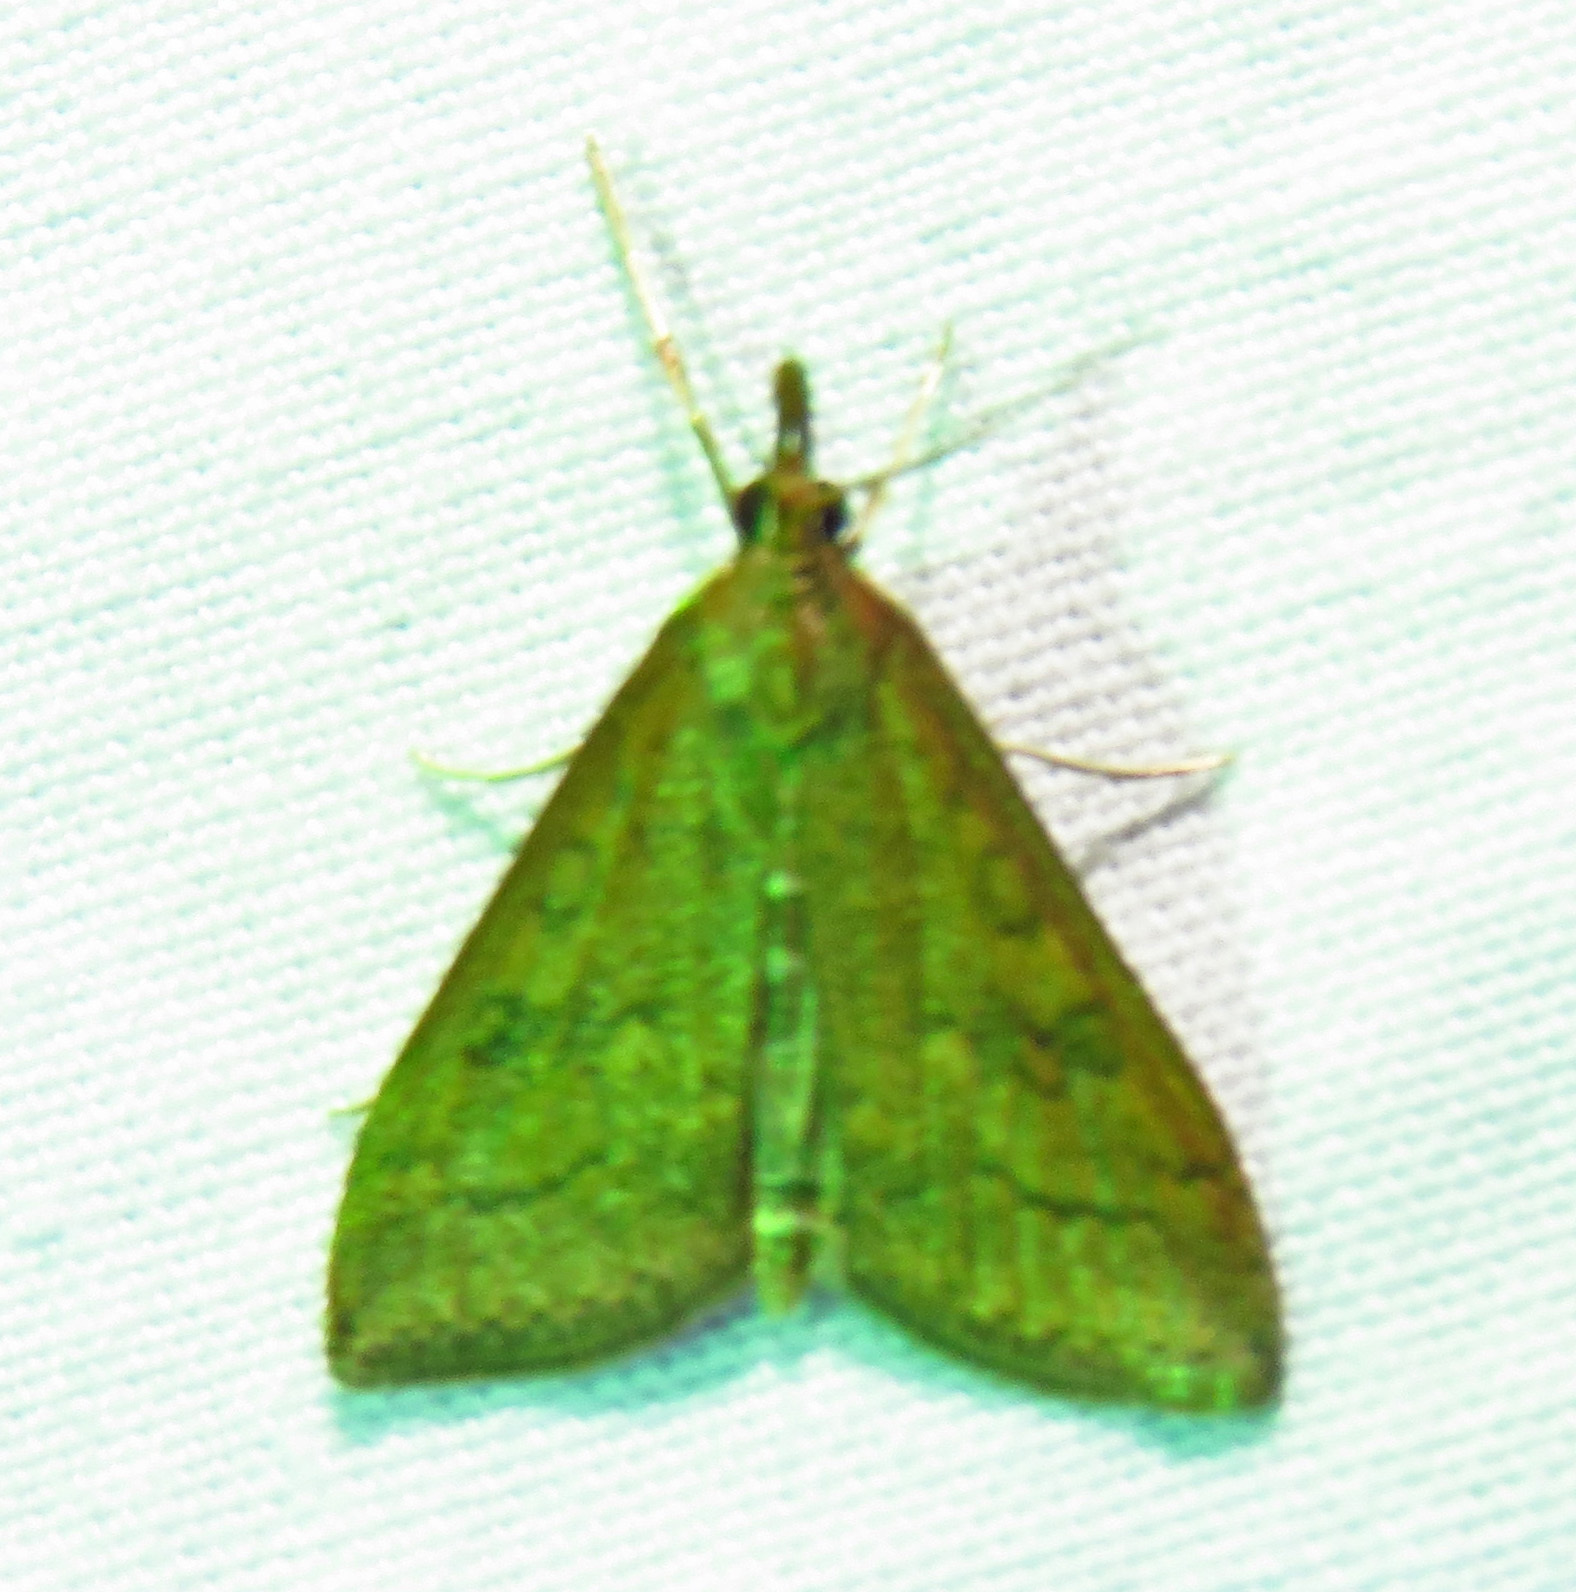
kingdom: Animalia
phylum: Arthropoda
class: Insecta
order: Lepidoptera
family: Crambidae
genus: Udea
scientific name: Udea rubigalis
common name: Celery leaftier moth
